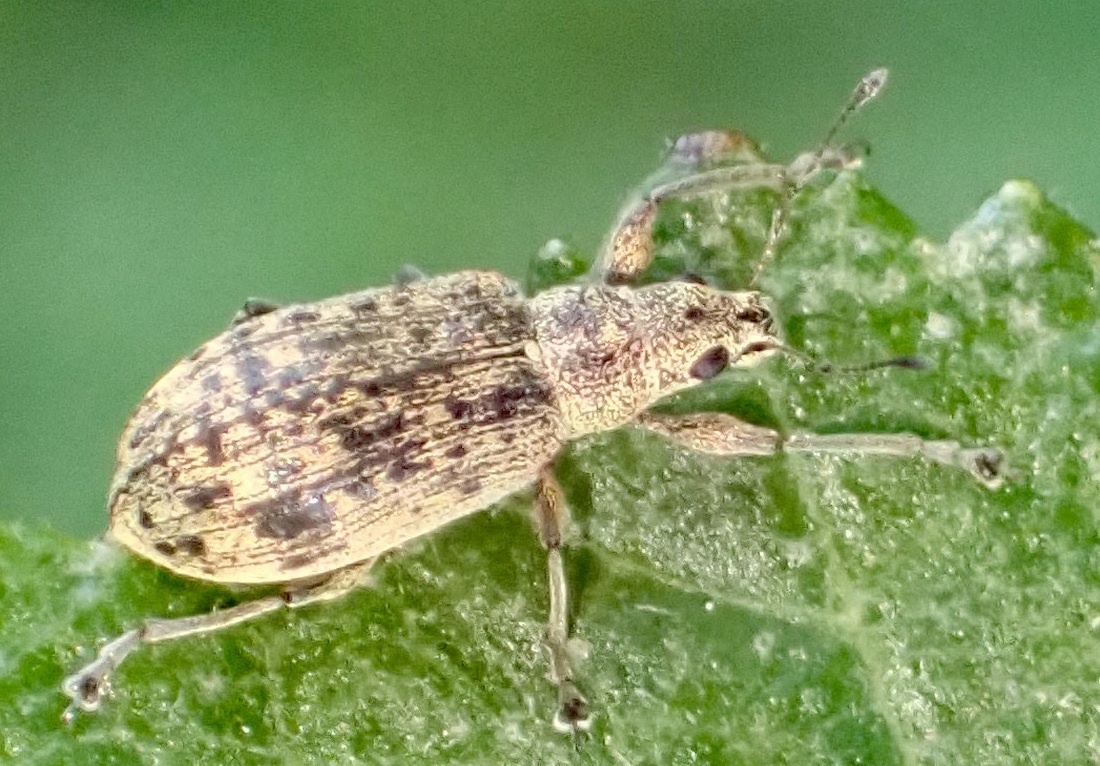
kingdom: Animalia
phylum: Arthropoda
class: Insecta
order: Coleoptera
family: Curculionidae
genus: Polydrusus
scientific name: Polydrusus cervinus
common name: Weevil
